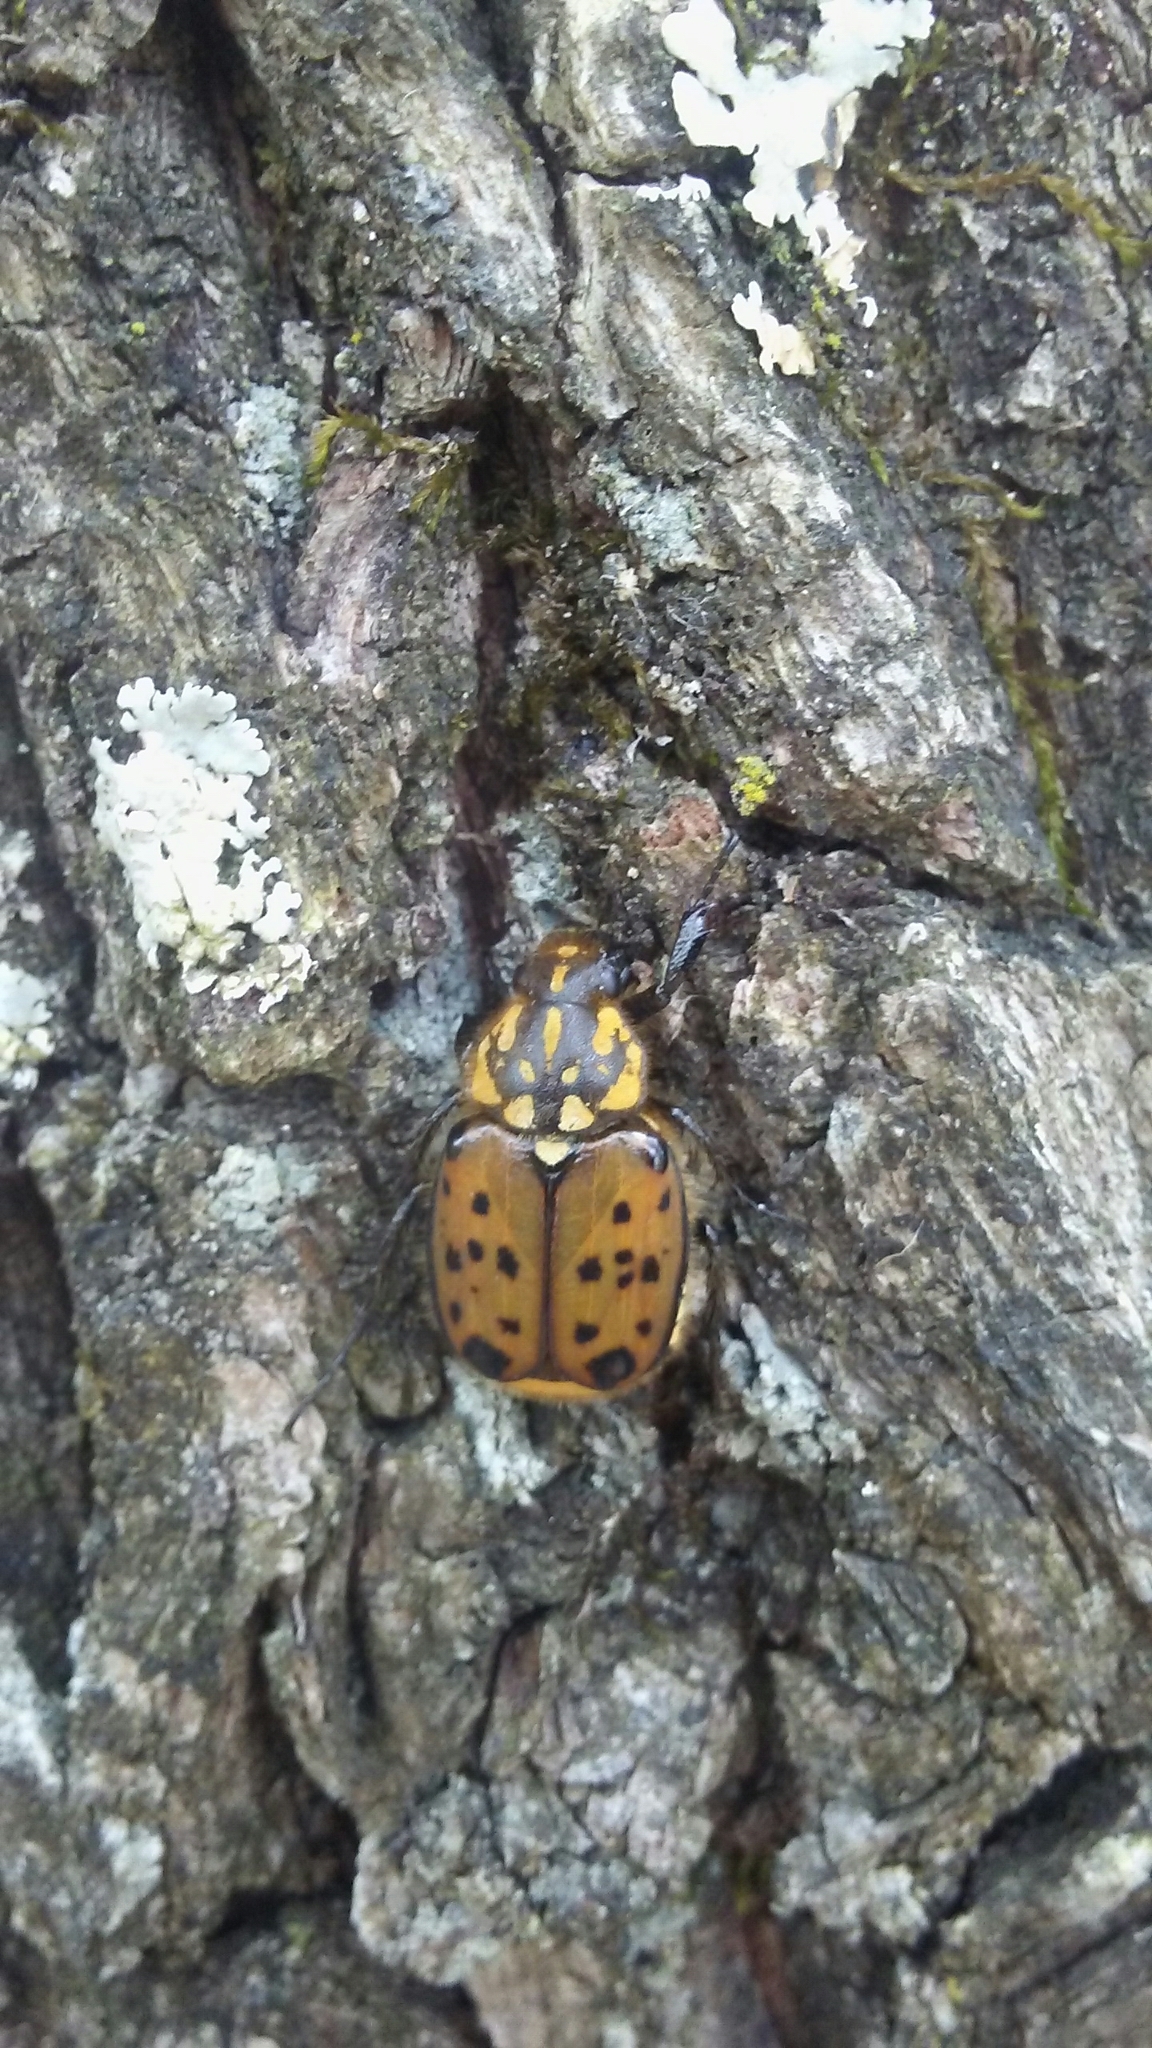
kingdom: Animalia
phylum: Arthropoda
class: Insecta
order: Coleoptera
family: Scarabaeidae
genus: Gnorimella
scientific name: Gnorimella maculosa
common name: Maculate flower beetle
